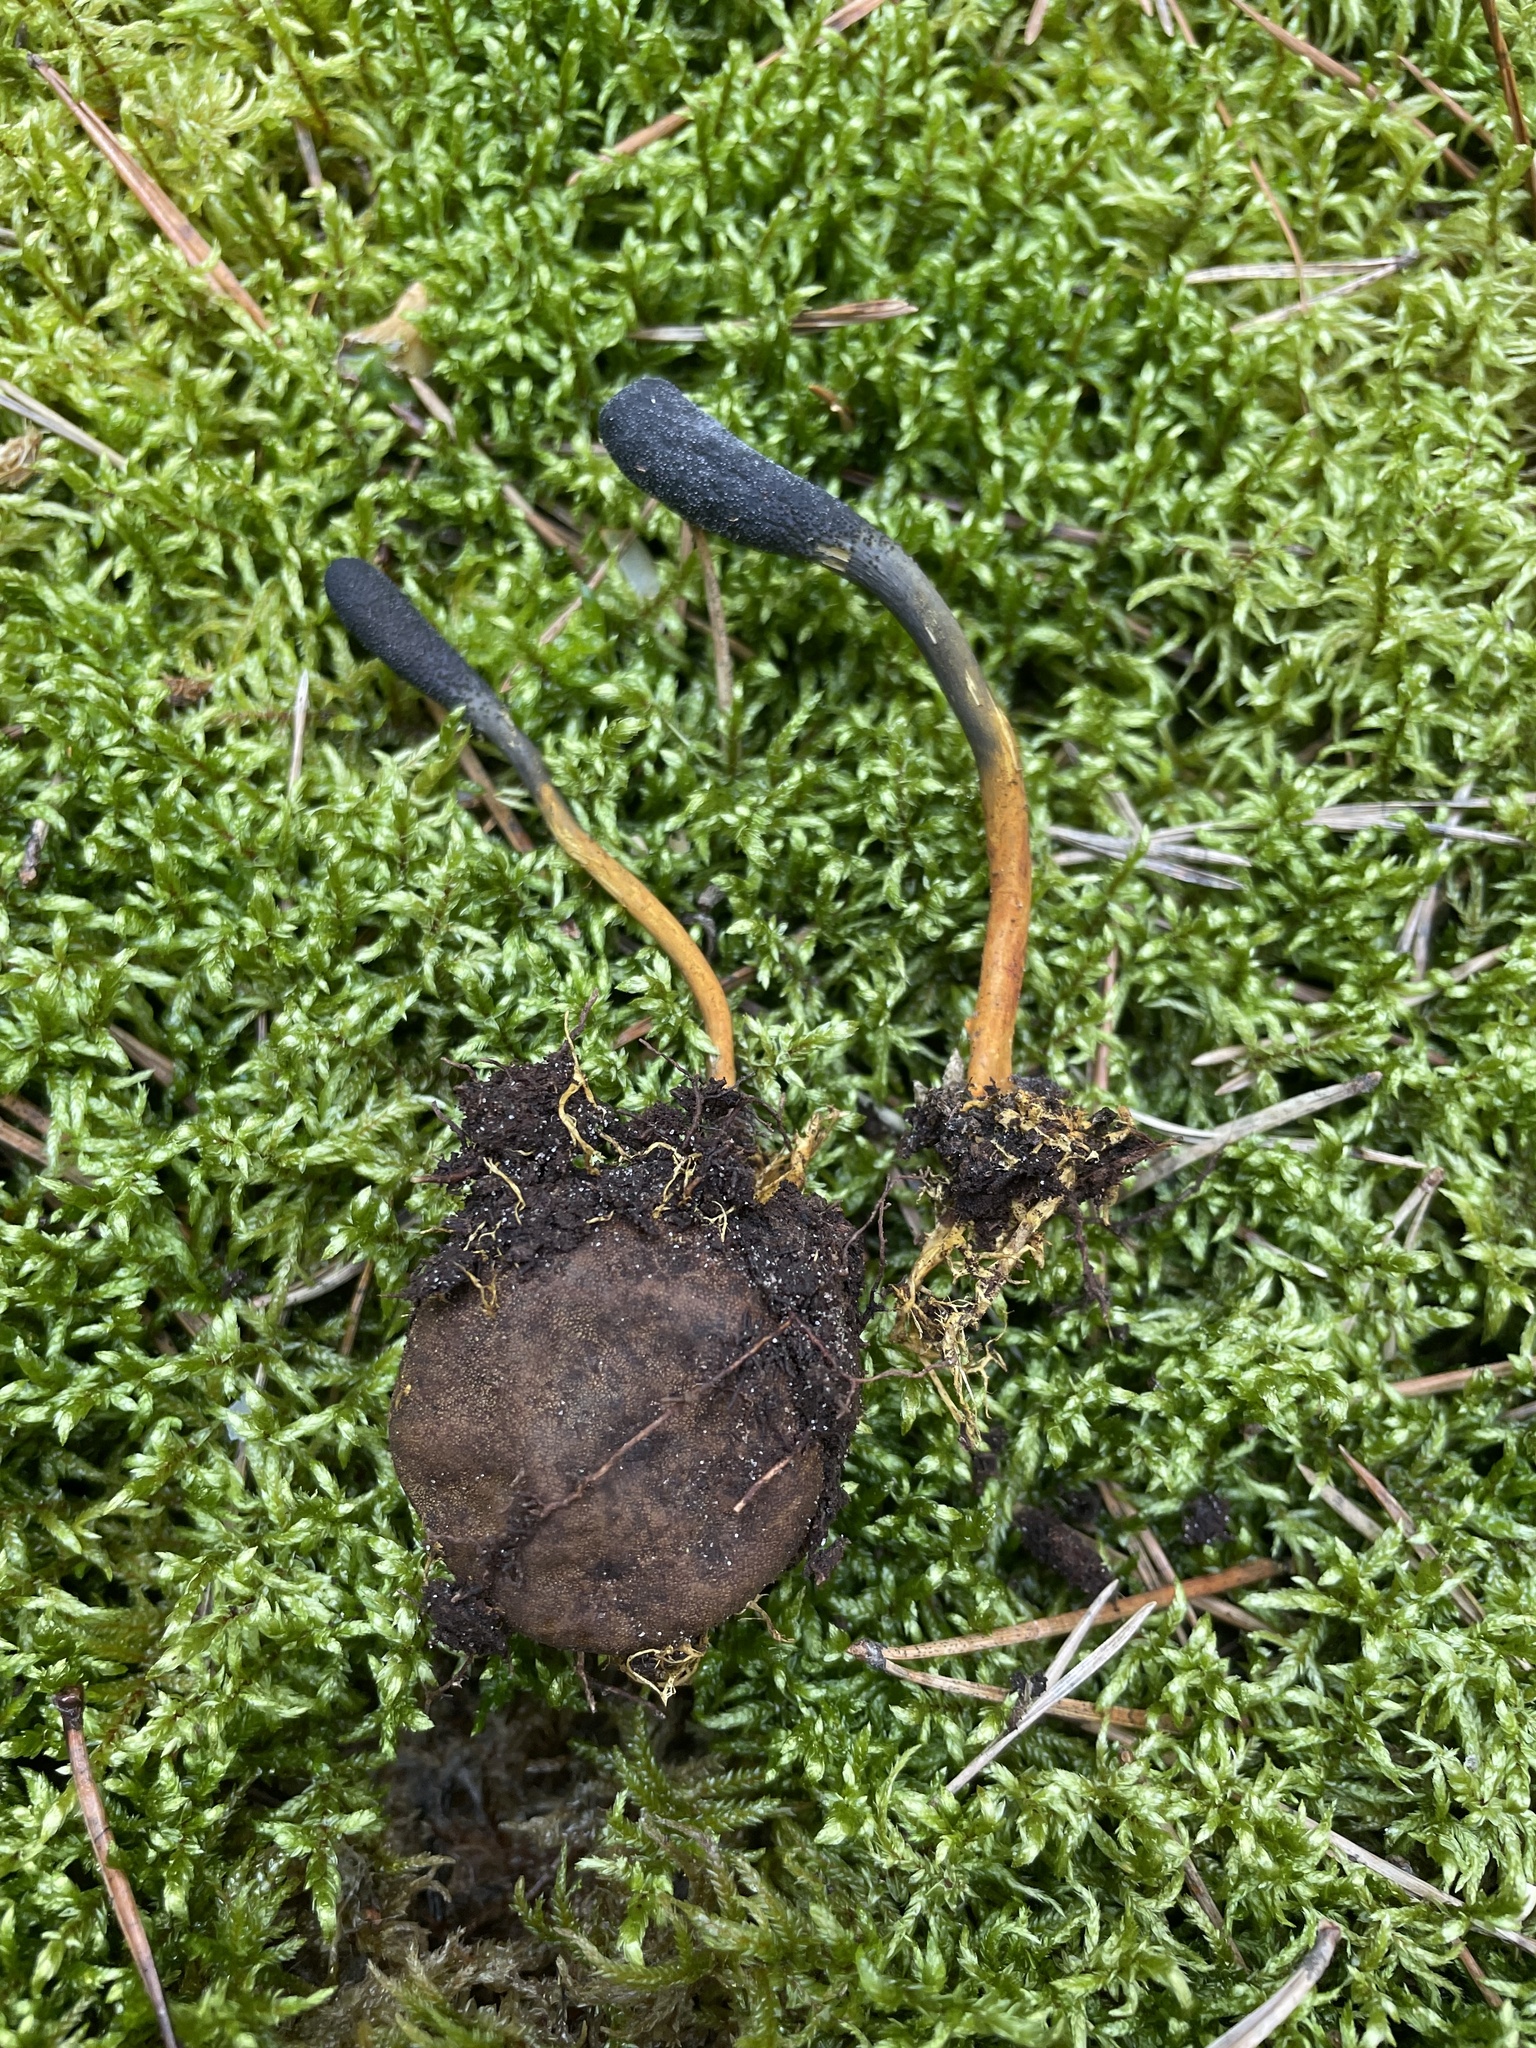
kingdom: Fungi
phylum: Ascomycota
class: Sordariomycetes
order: Hypocreales
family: Ophiocordycipitaceae
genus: Tolypocladium
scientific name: Tolypocladium ophioglossoides
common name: Snaketongue truffleclub
